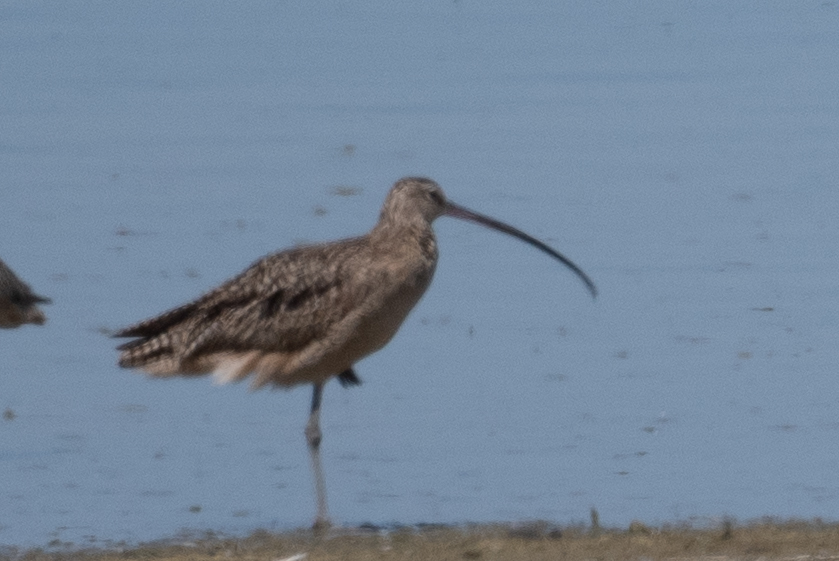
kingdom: Animalia
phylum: Chordata
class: Aves
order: Charadriiformes
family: Scolopacidae
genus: Numenius
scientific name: Numenius americanus
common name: Long-billed curlew
